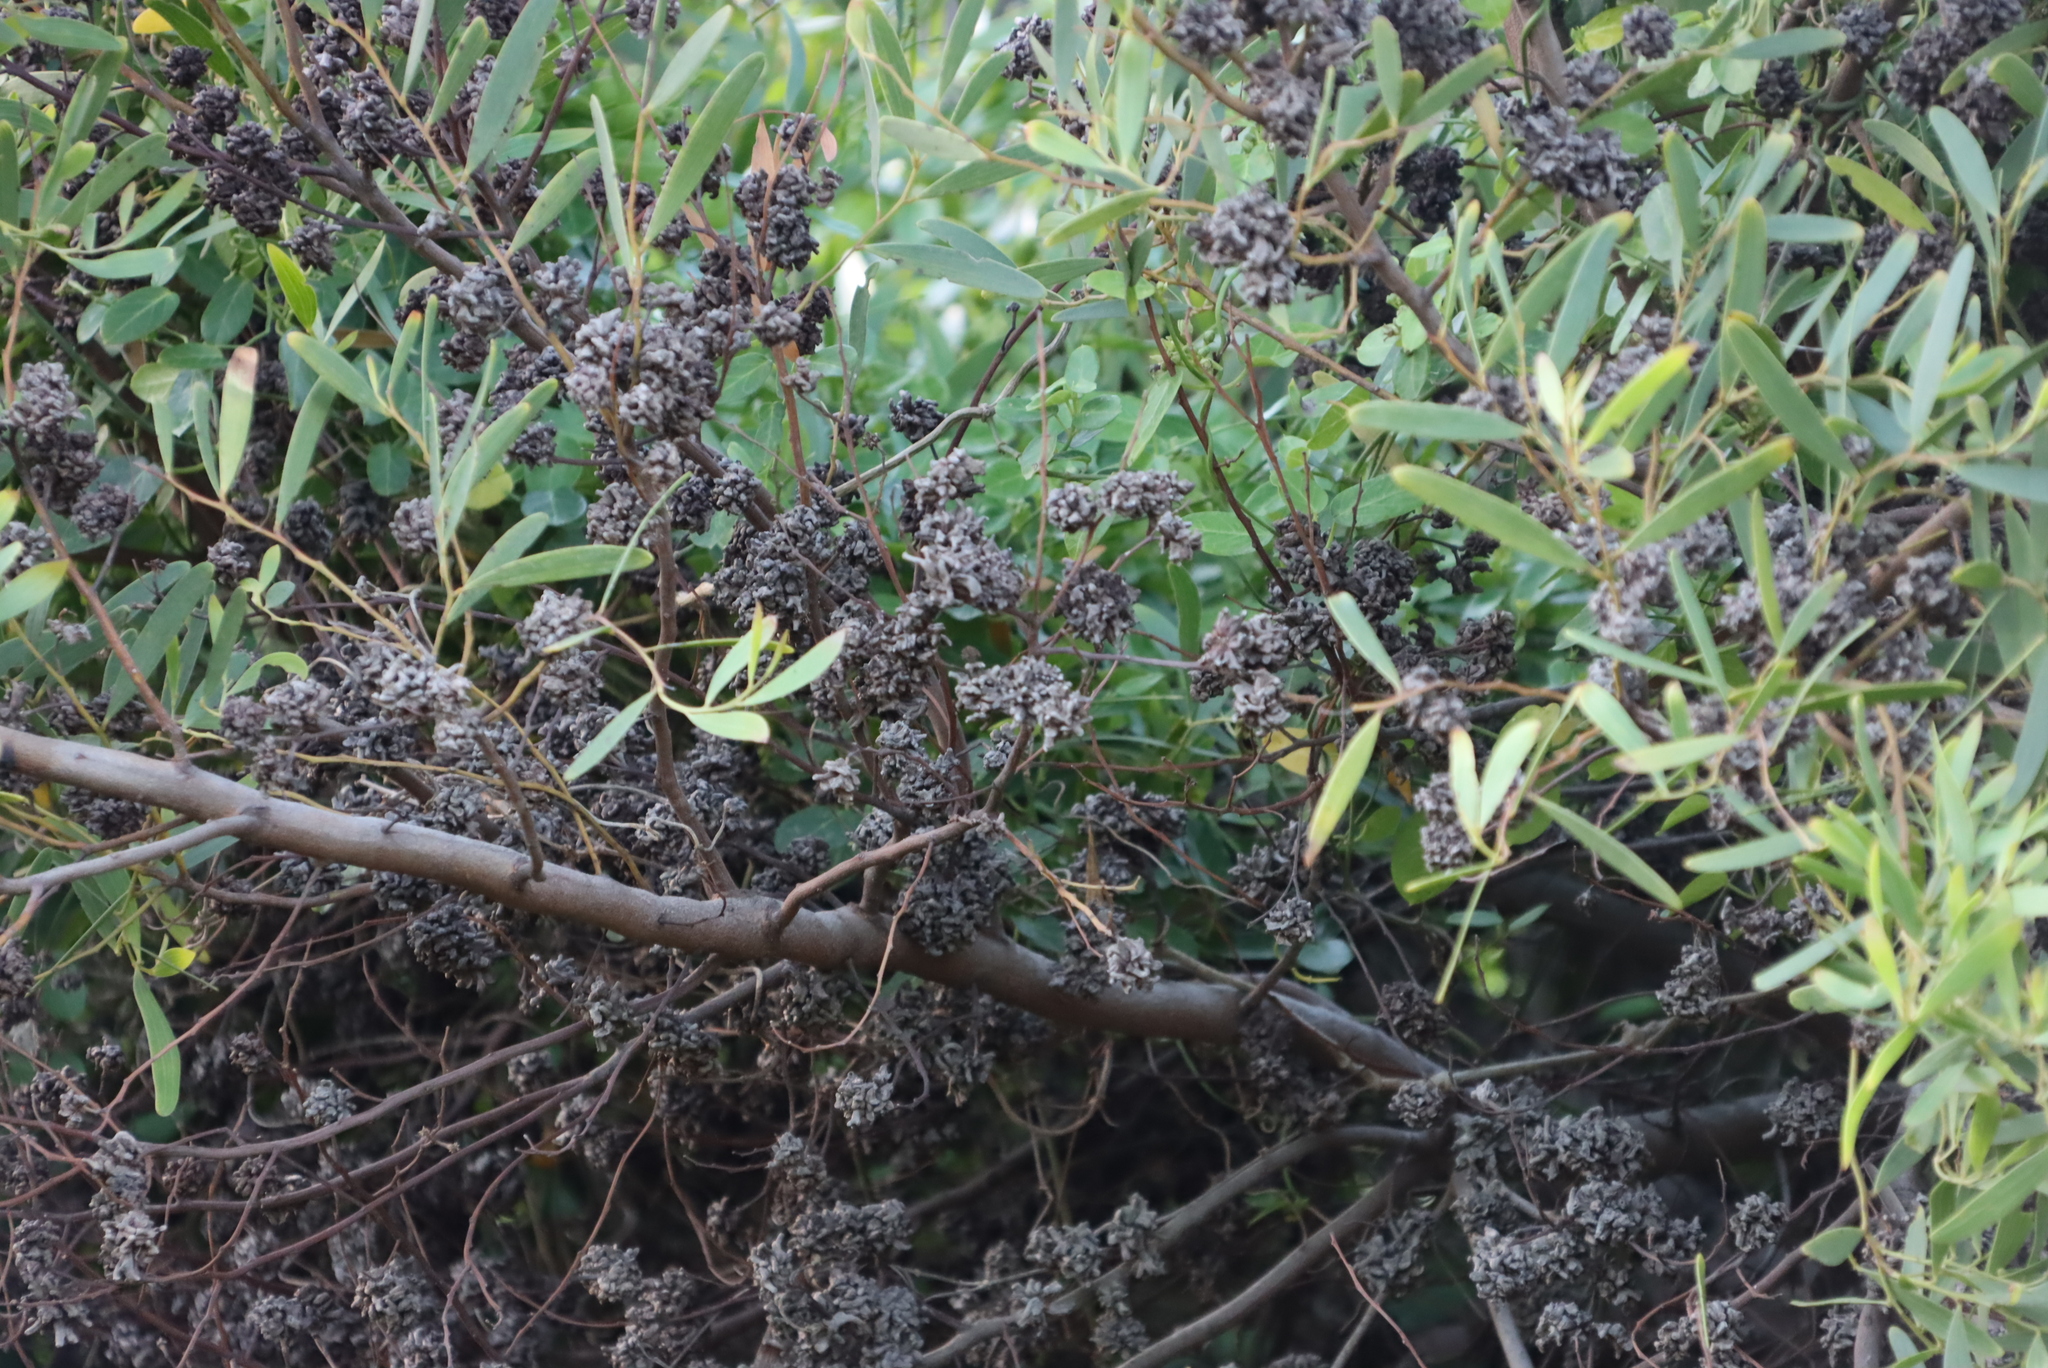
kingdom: Animalia
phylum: Arthropoda
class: Insecta
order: Diptera
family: Cecidomyiidae
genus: Dasineura
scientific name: Dasineura dielsi
